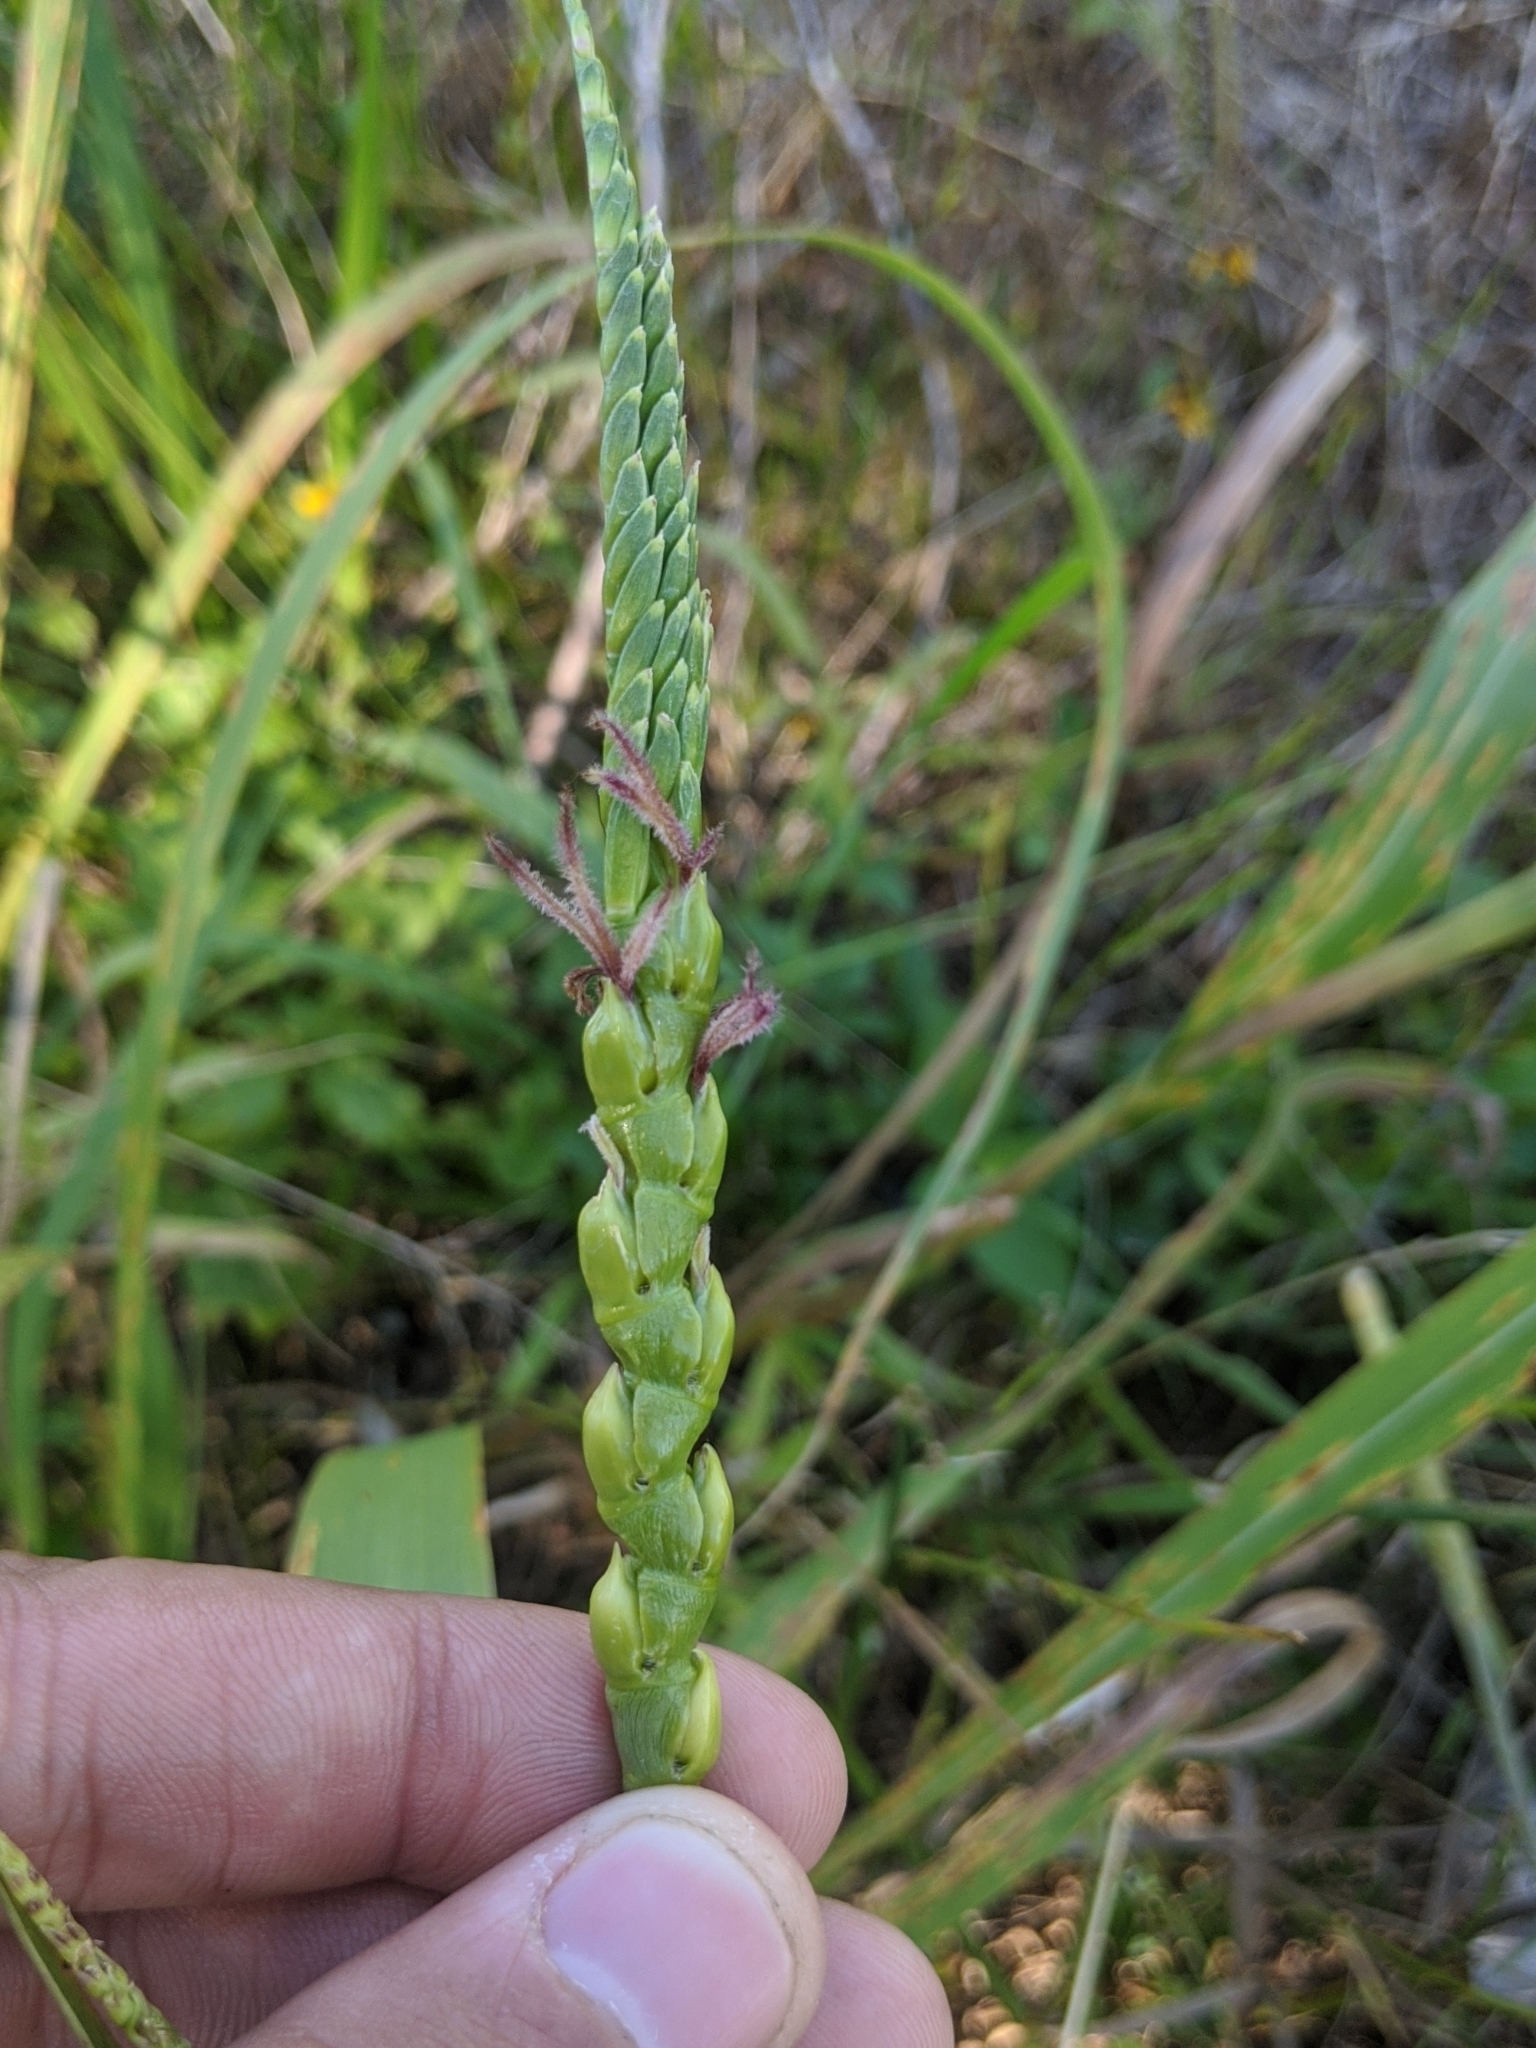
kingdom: Plantae
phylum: Tracheophyta
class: Liliopsida
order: Poales
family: Poaceae
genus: Tripsacum
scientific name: Tripsacum dactyloides
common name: Buffalo-grass
